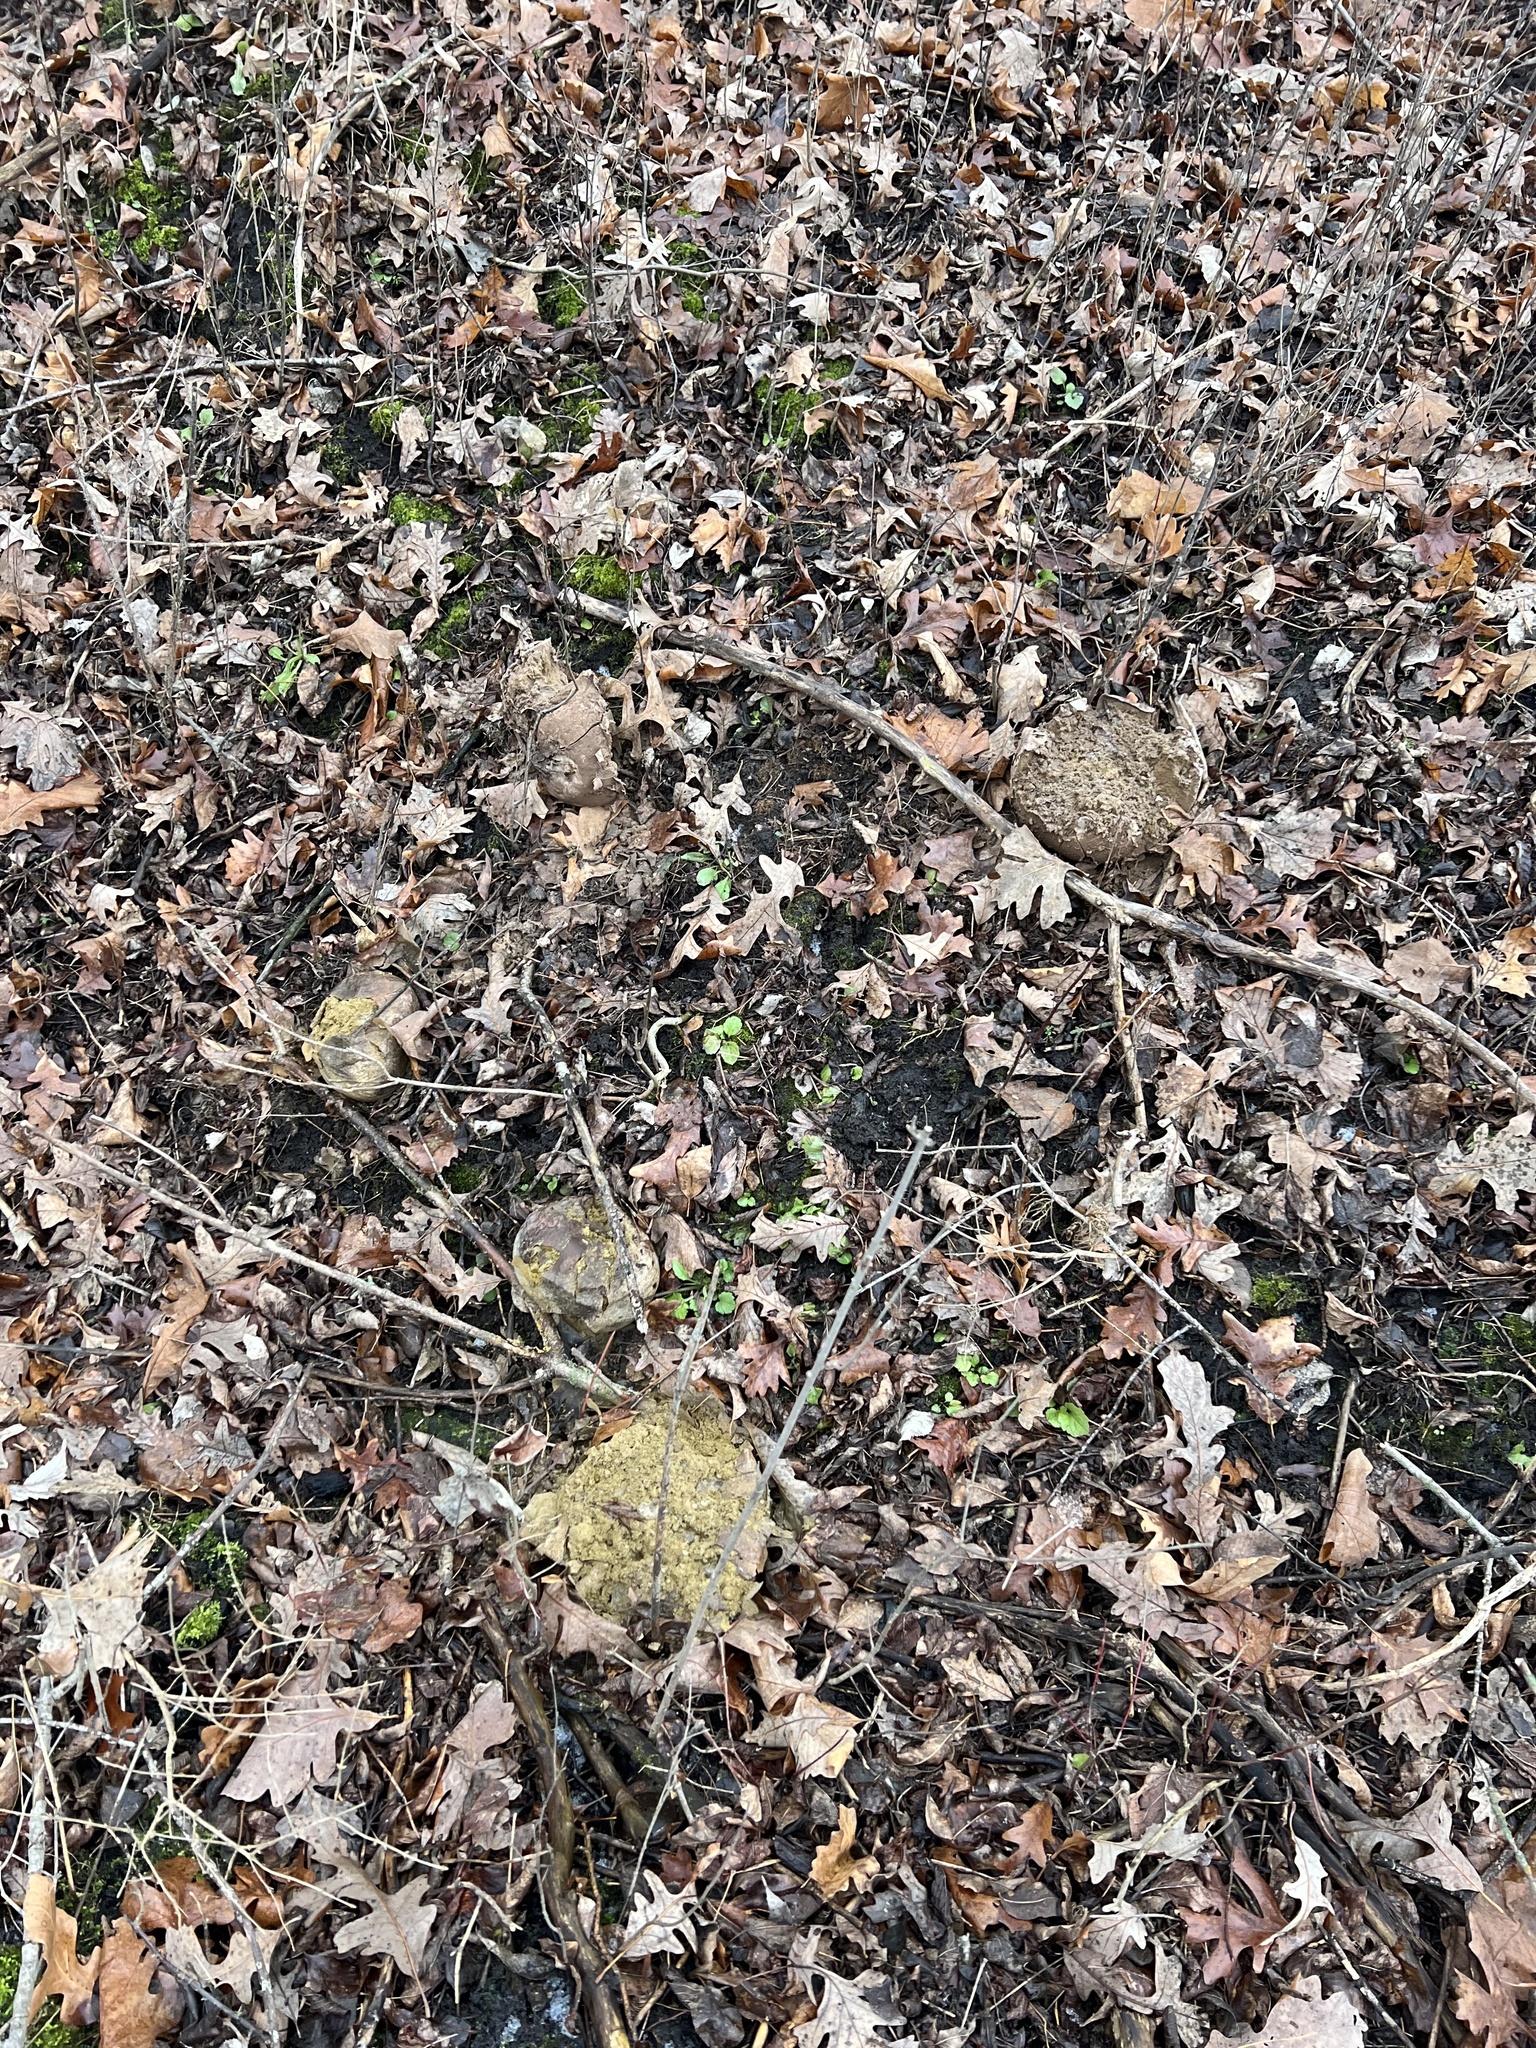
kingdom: Fungi
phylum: Basidiomycota
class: Agaricomycetes
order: Agaricales
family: Lycoperdaceae
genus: Calvatia
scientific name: Calvatia gigantea
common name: Giant puffball
